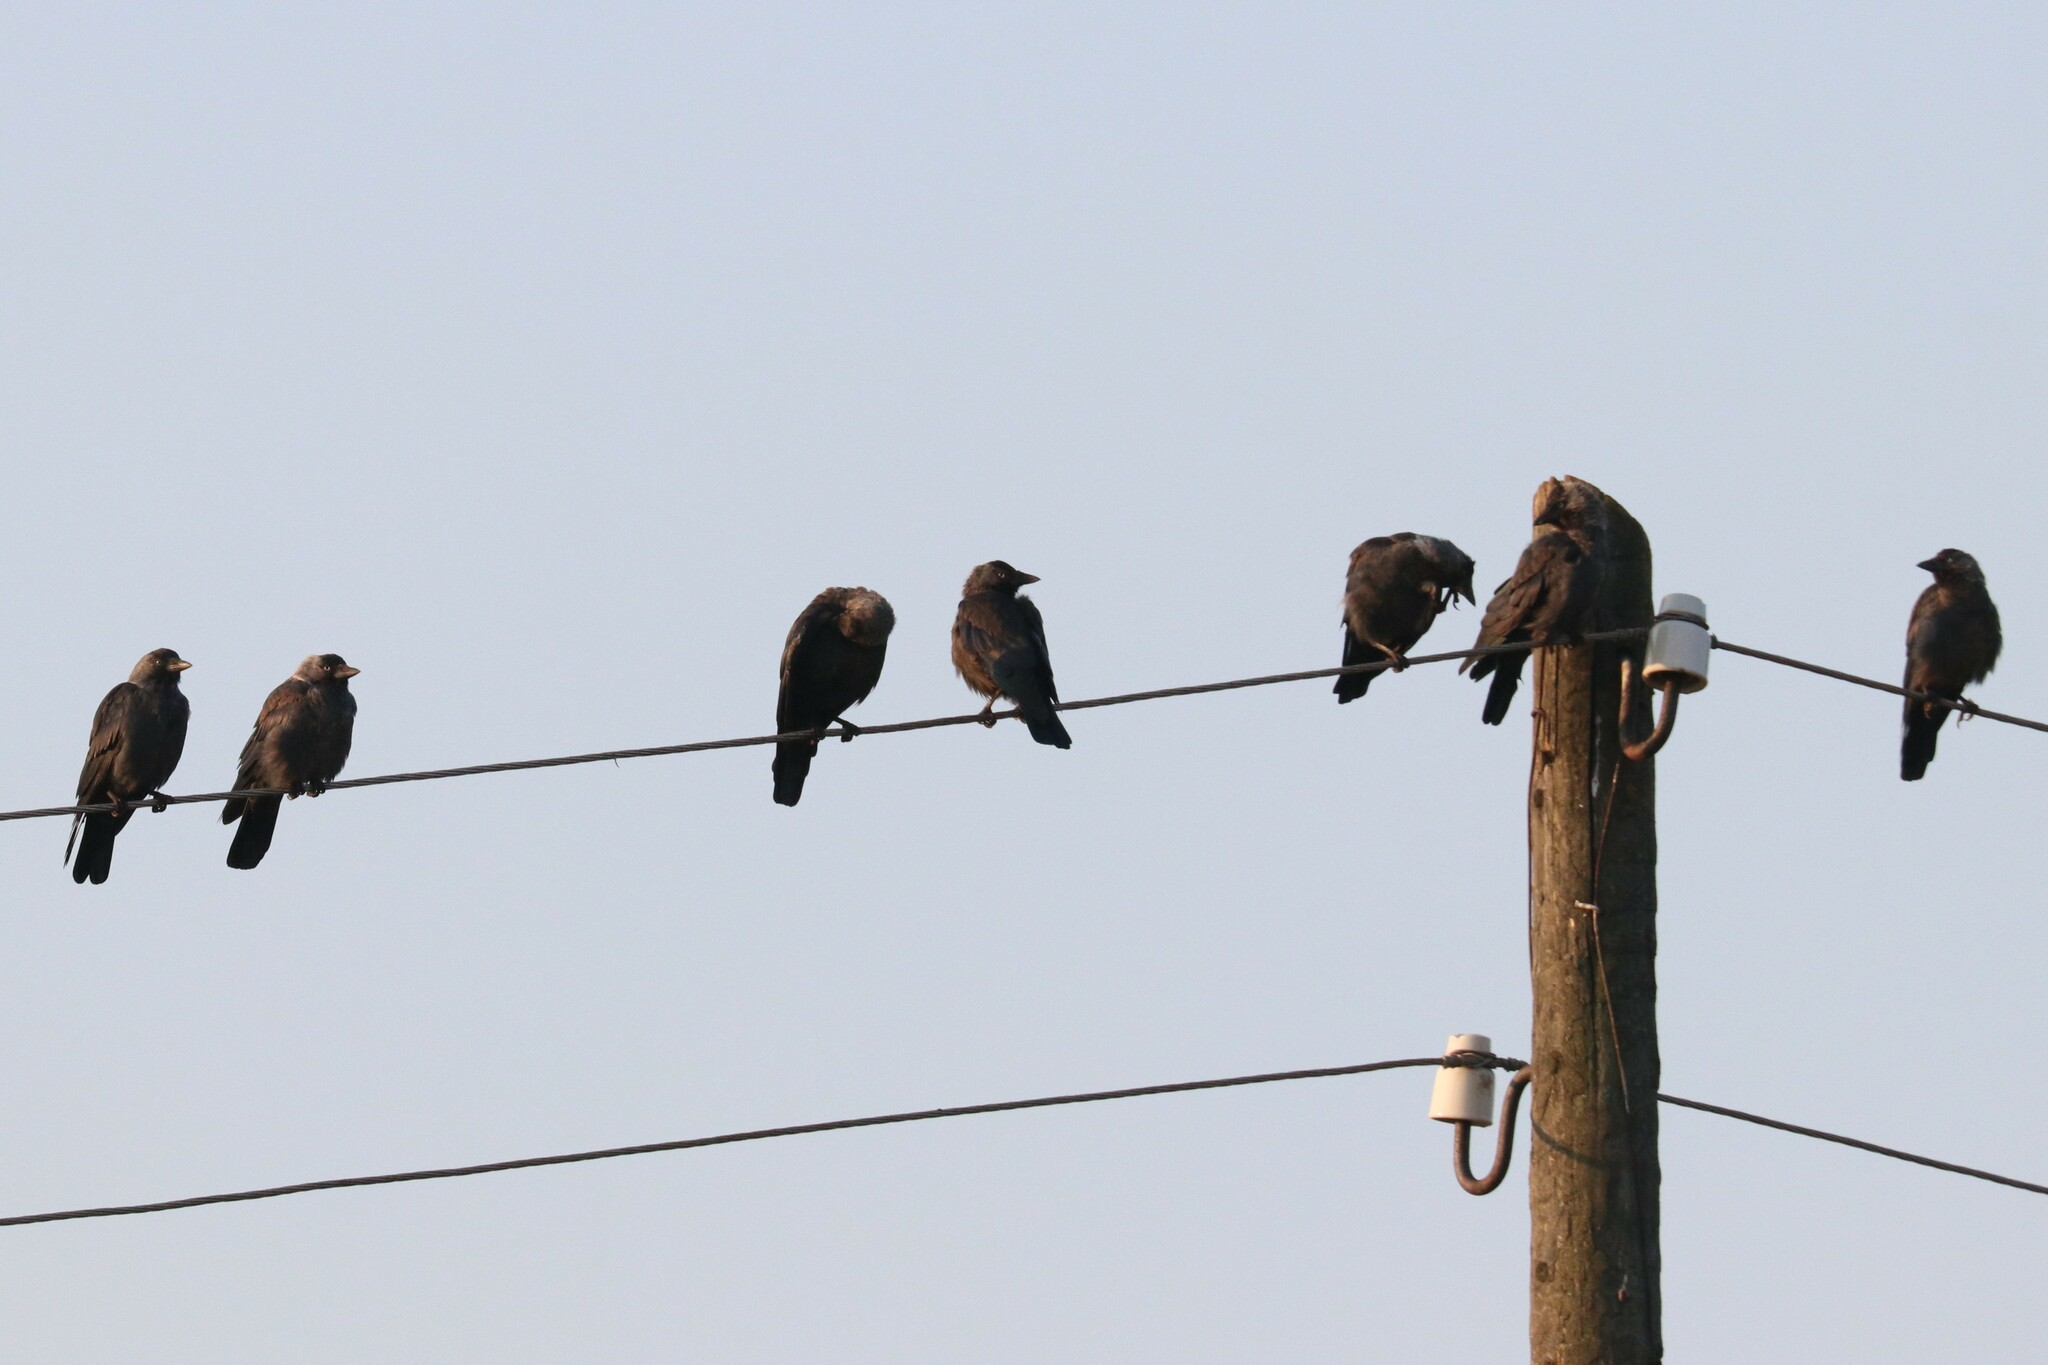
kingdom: Animalia
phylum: Chordata
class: Aves
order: Passeriformes
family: Corvidae
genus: Coloeus
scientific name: Coloeus monedula
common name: Western jackdaw
